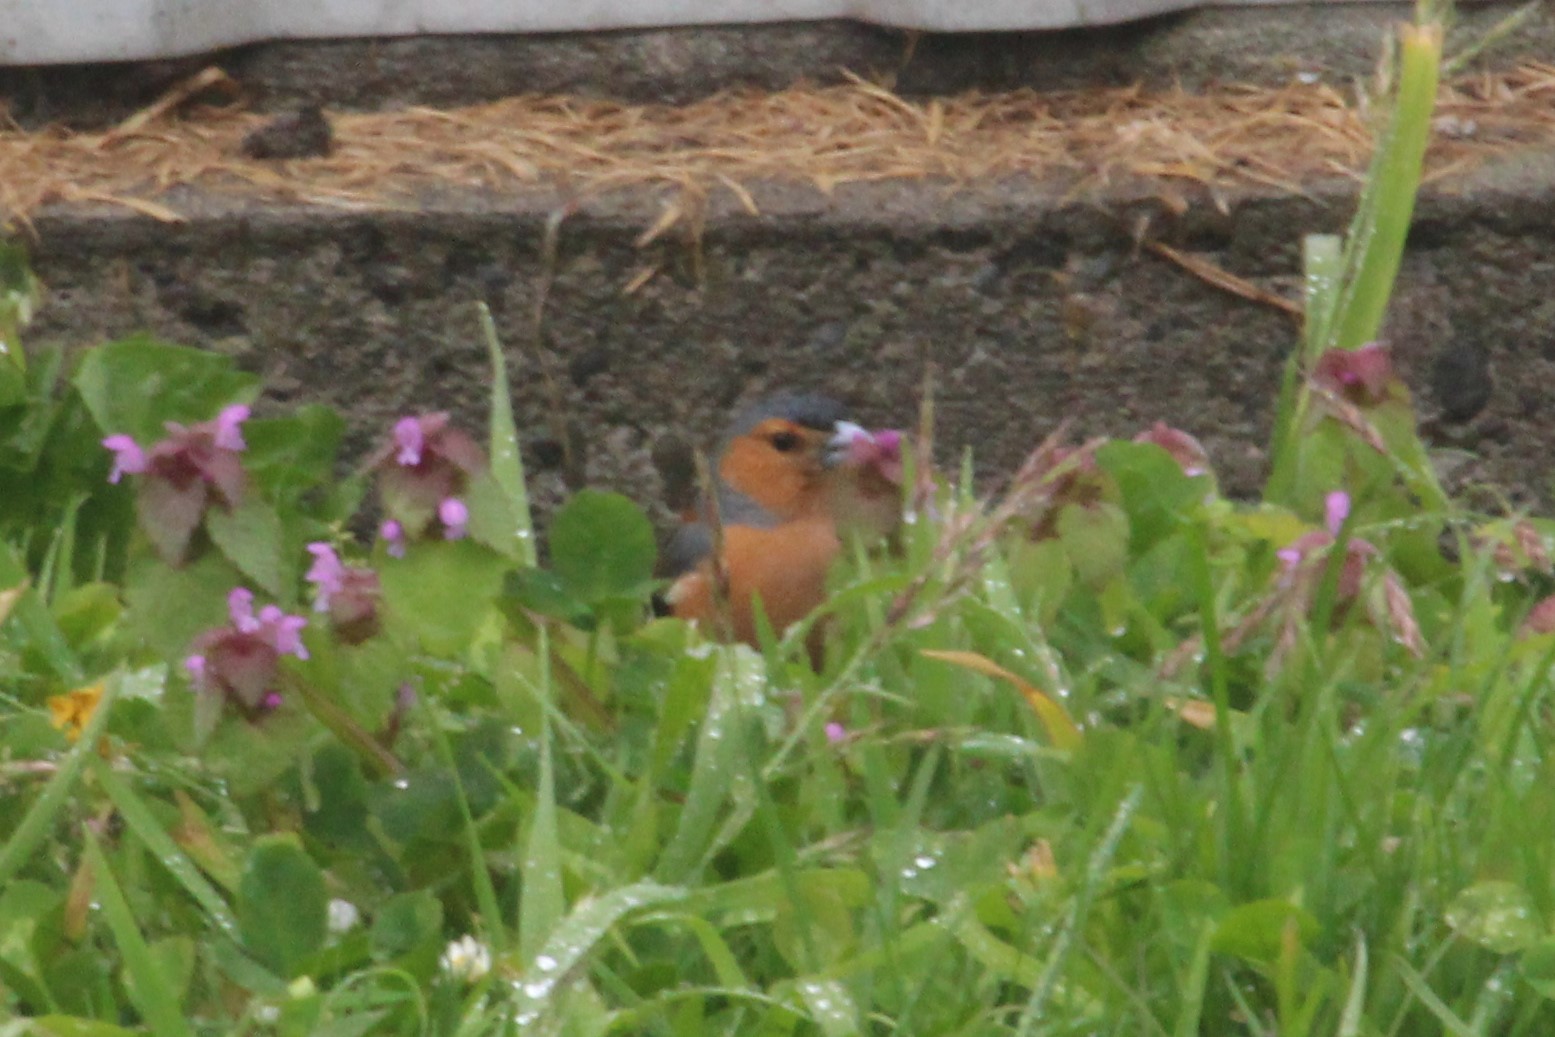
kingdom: Animalia
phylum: Chordata
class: Aves
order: Passeriformes
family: Fringillidae
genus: Fringilla
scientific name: Fringilla coelebs
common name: Common chaffinch
